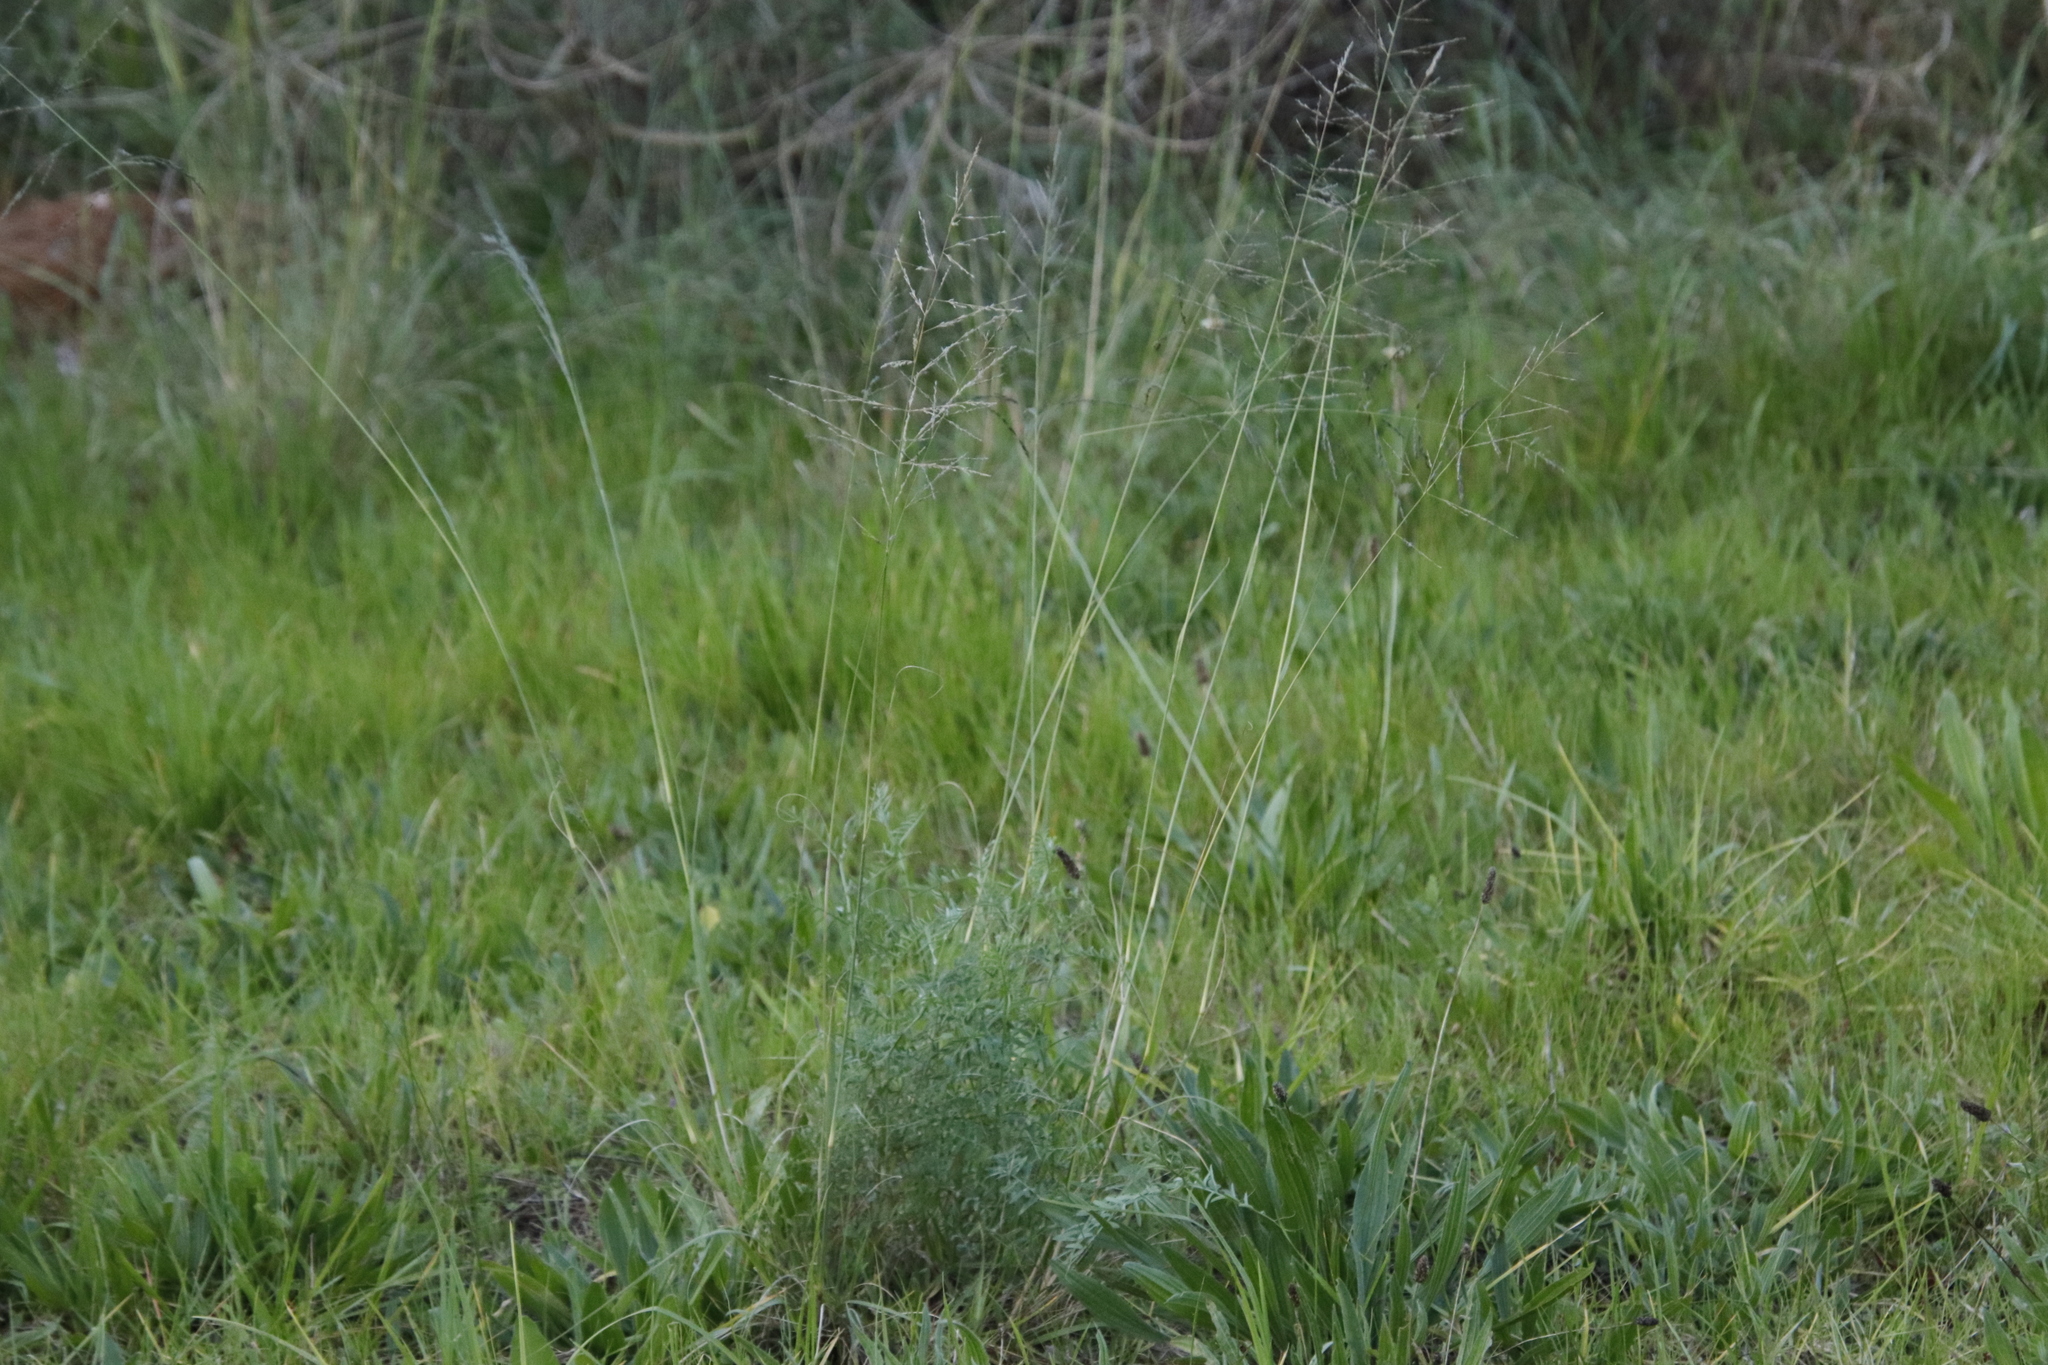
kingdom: Plantae
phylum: Tracheophyta
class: Liliopsida
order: Poales
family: Poaceae
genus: Eragrostis
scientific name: Eragrostis curvula
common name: African love-grass
